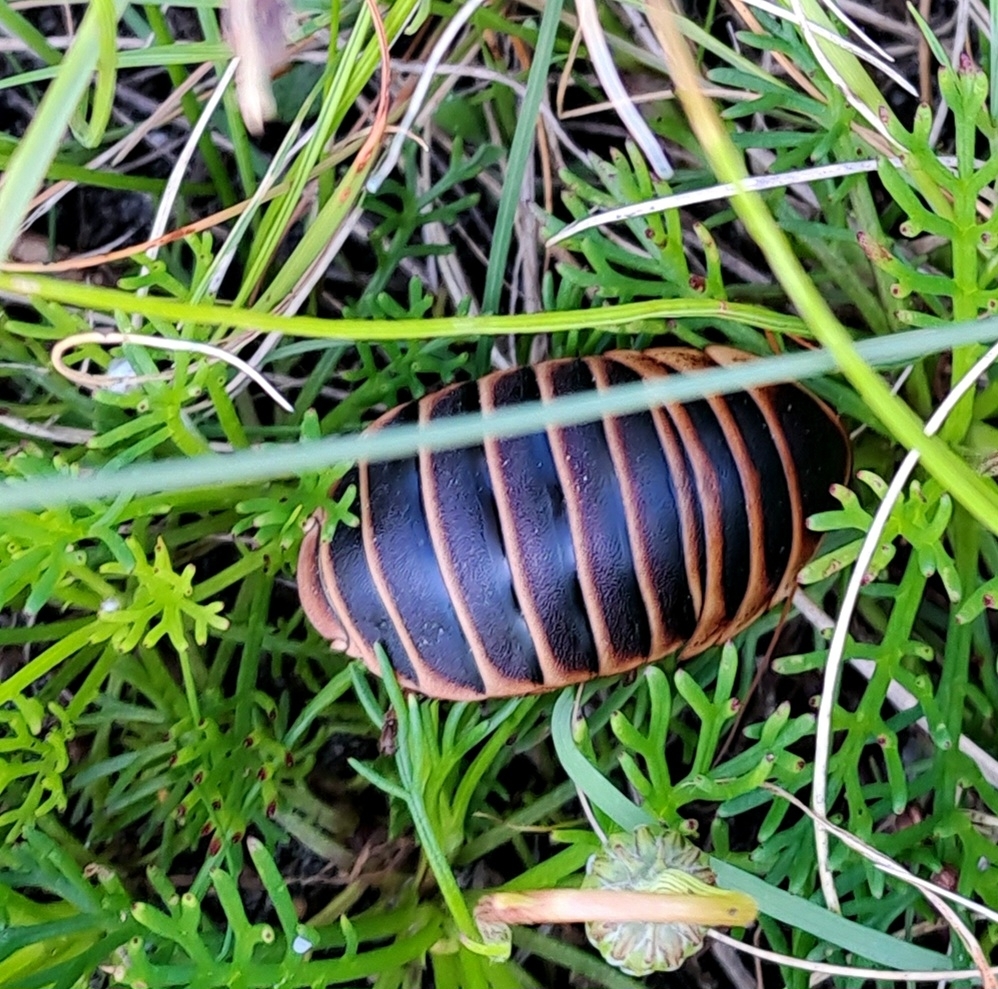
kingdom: Animalia
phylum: Arthropoda
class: Insecta
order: Blattodea
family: Blaberidae
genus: Aptera
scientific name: Aptera fusca
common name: Cape mountain cockroach
